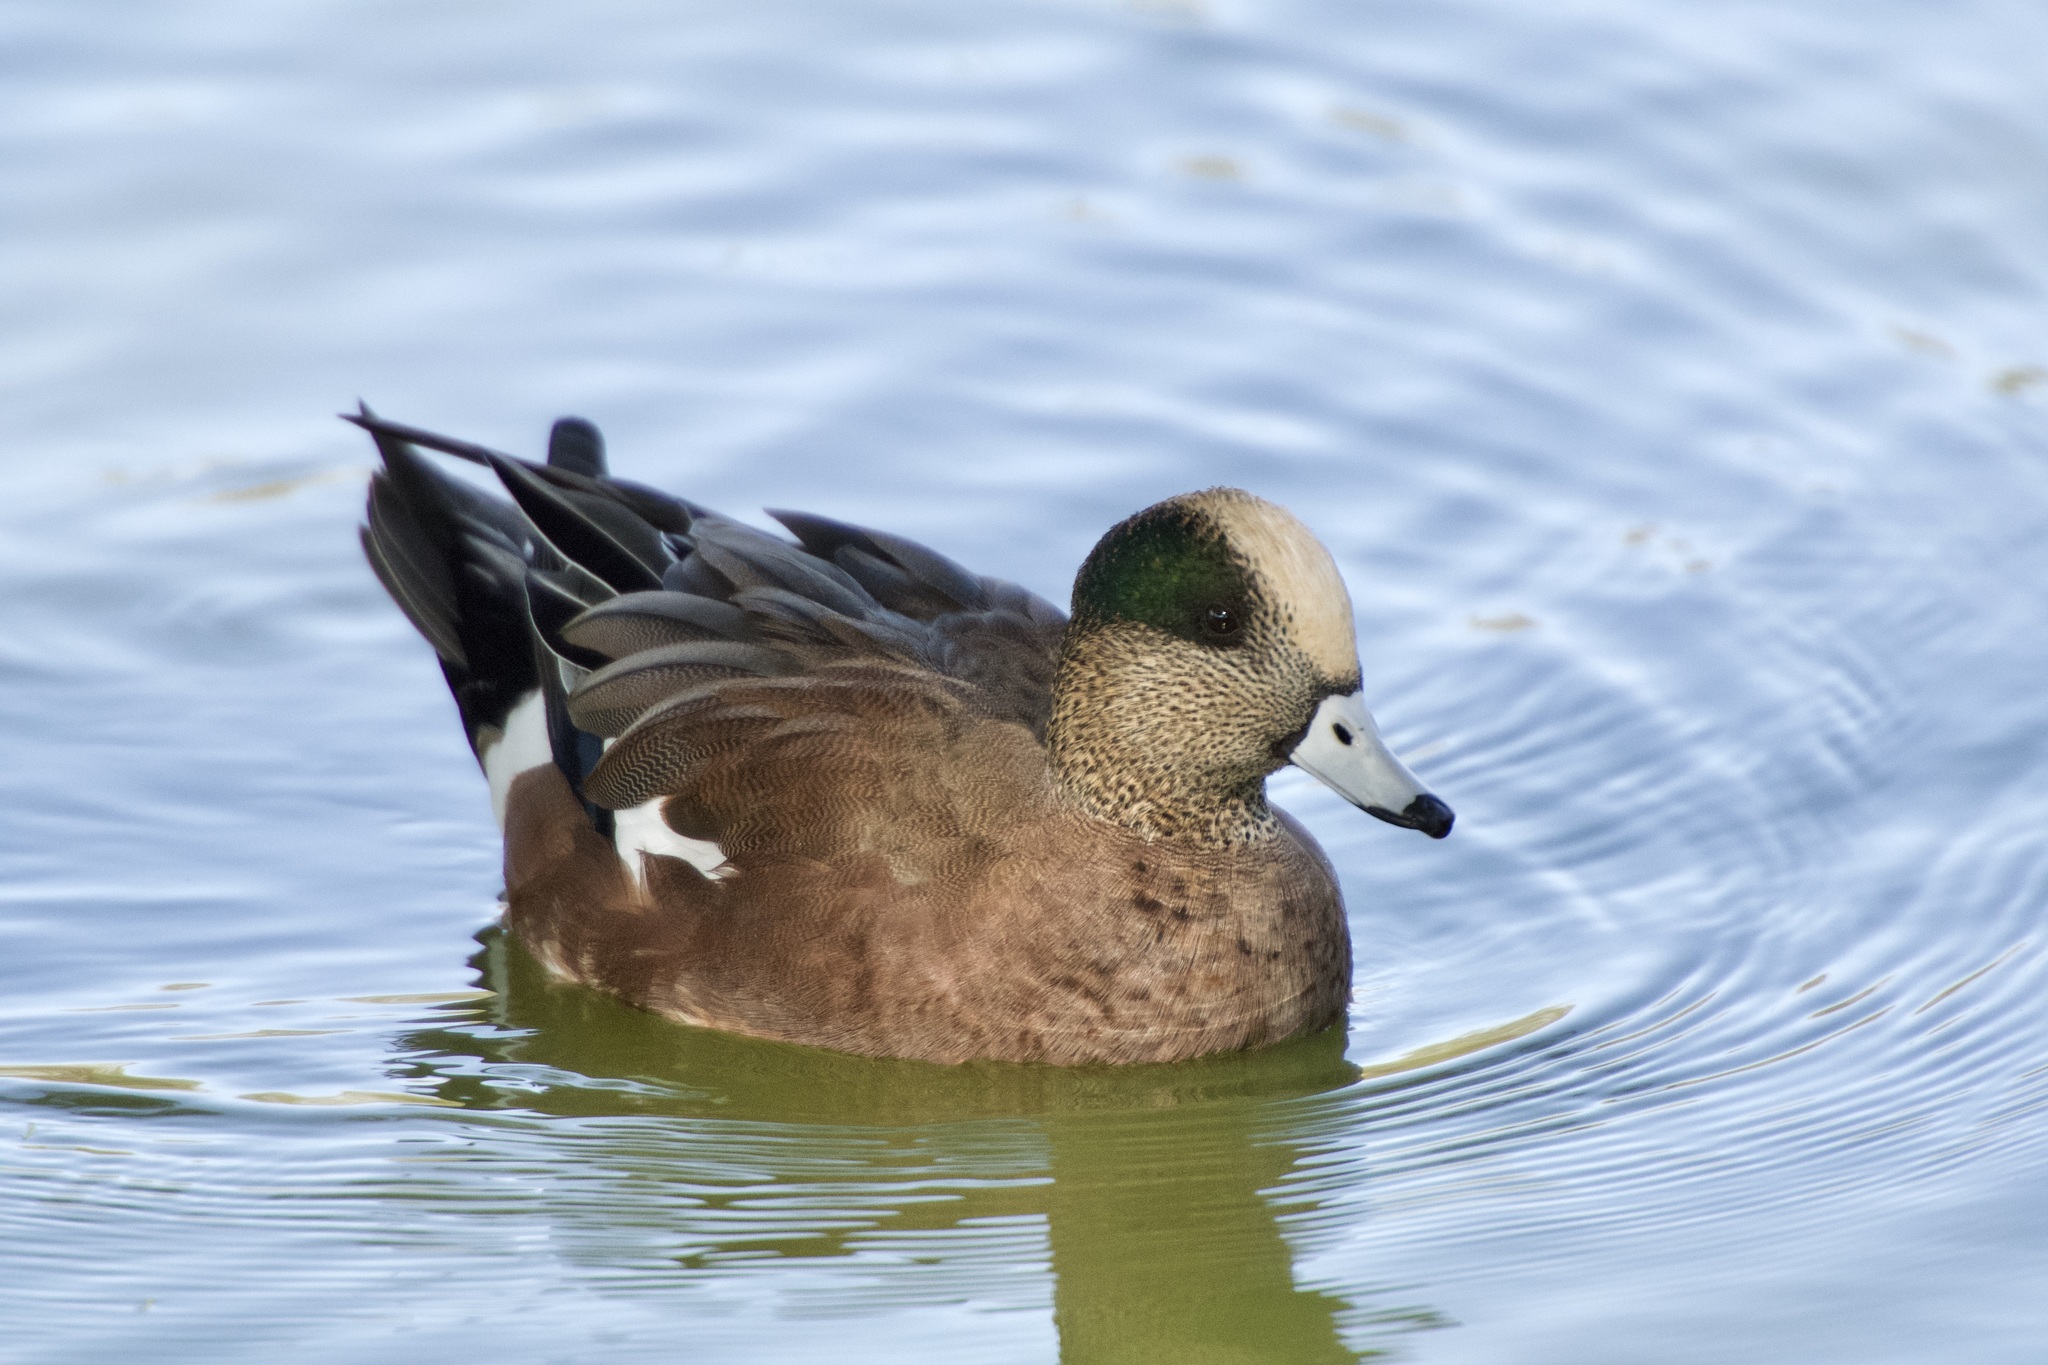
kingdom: Animalia
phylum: Chordata
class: Aves
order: Anseriformes
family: Anatidae
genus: Mareca
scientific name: Mareca americana
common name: American wigeon
